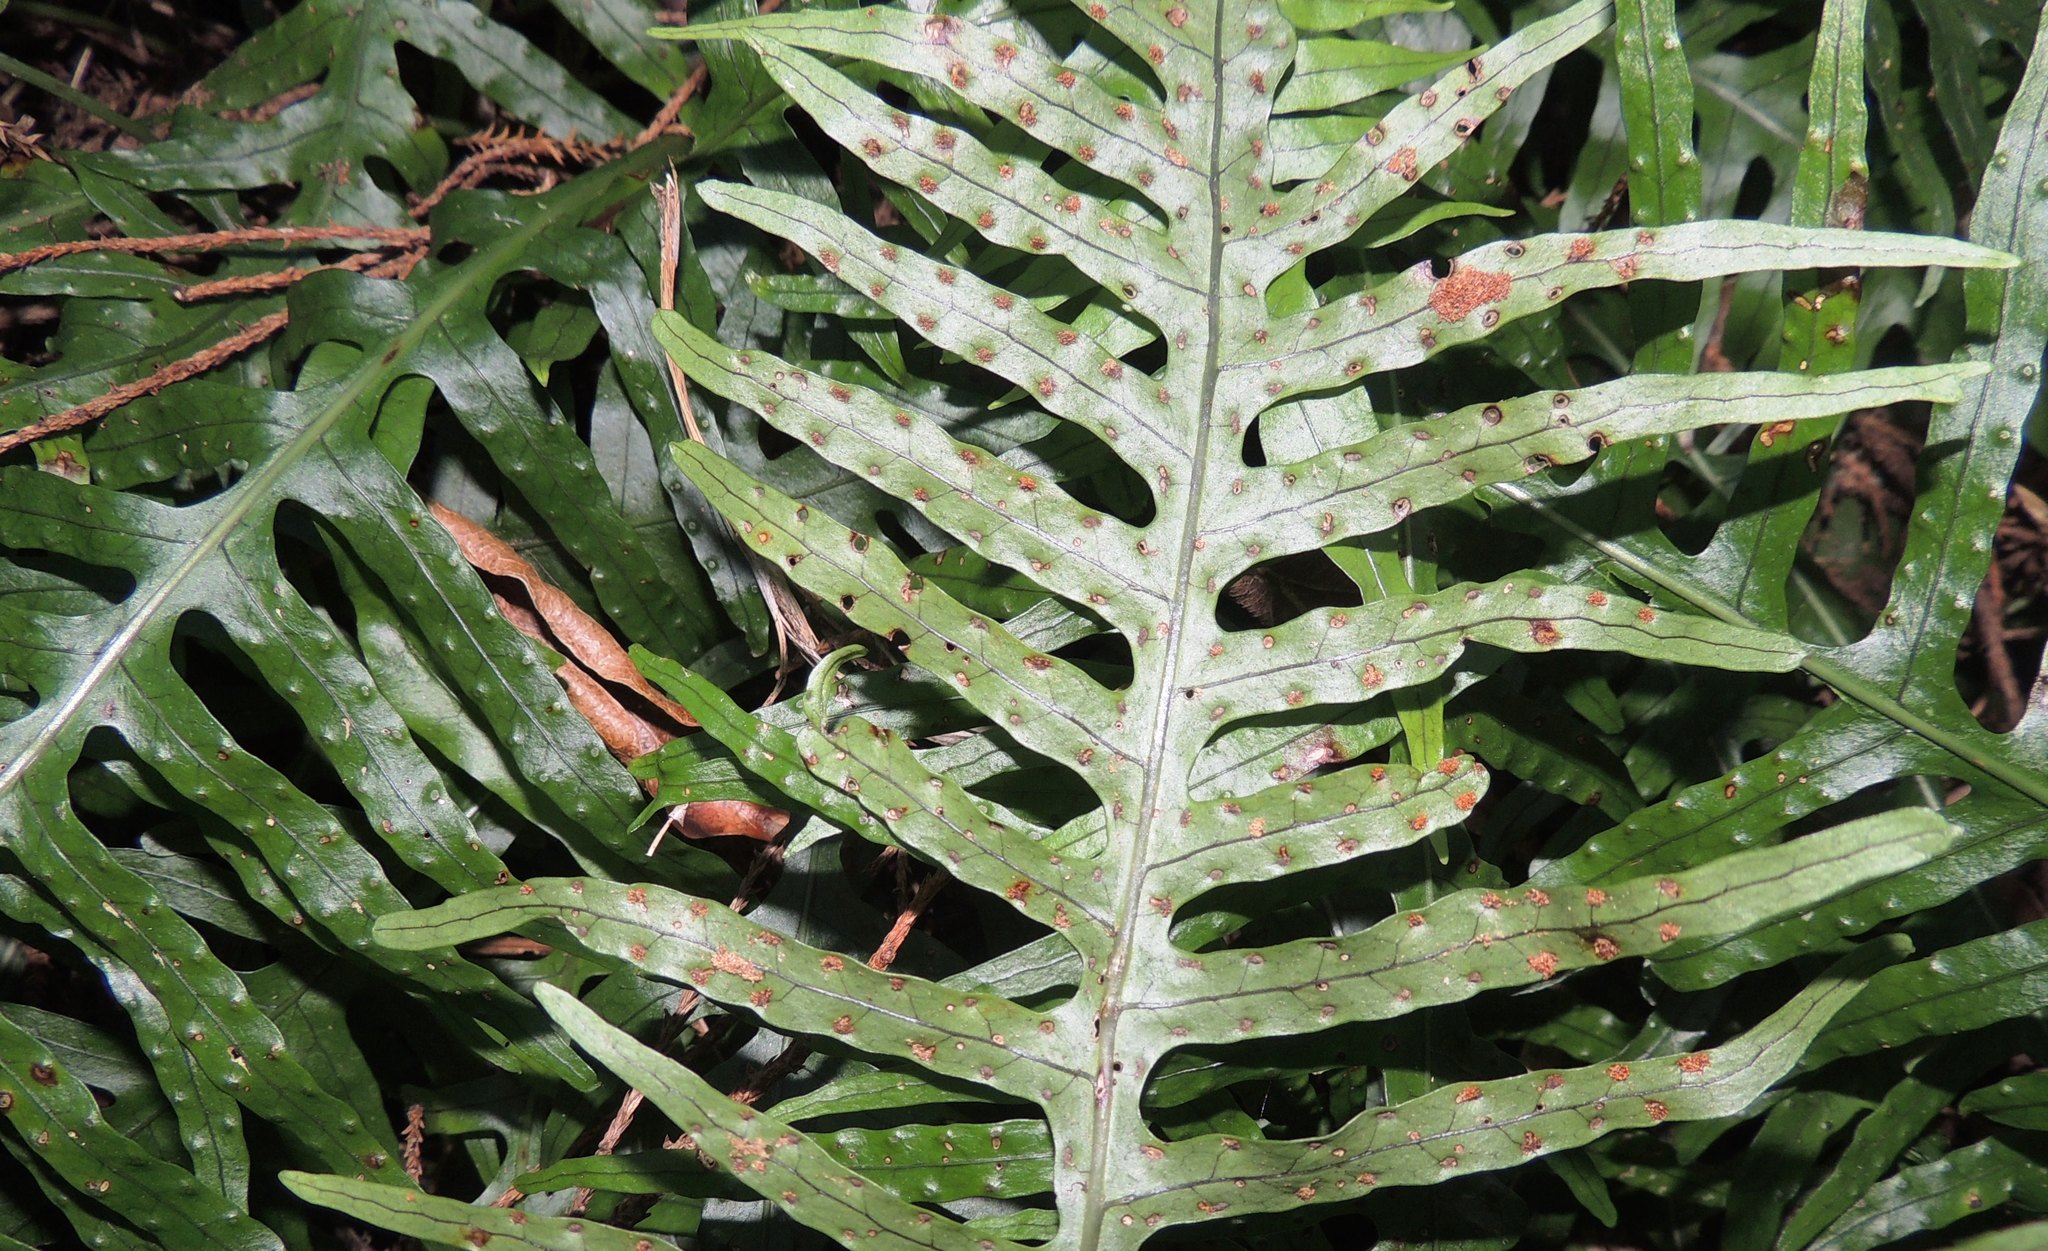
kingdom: Plantae
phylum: Tracheophyta
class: Polypodiopsida
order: Polypodiales
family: Polypodiaceae
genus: Lecanopteris
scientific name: Lecanopteris scandens
